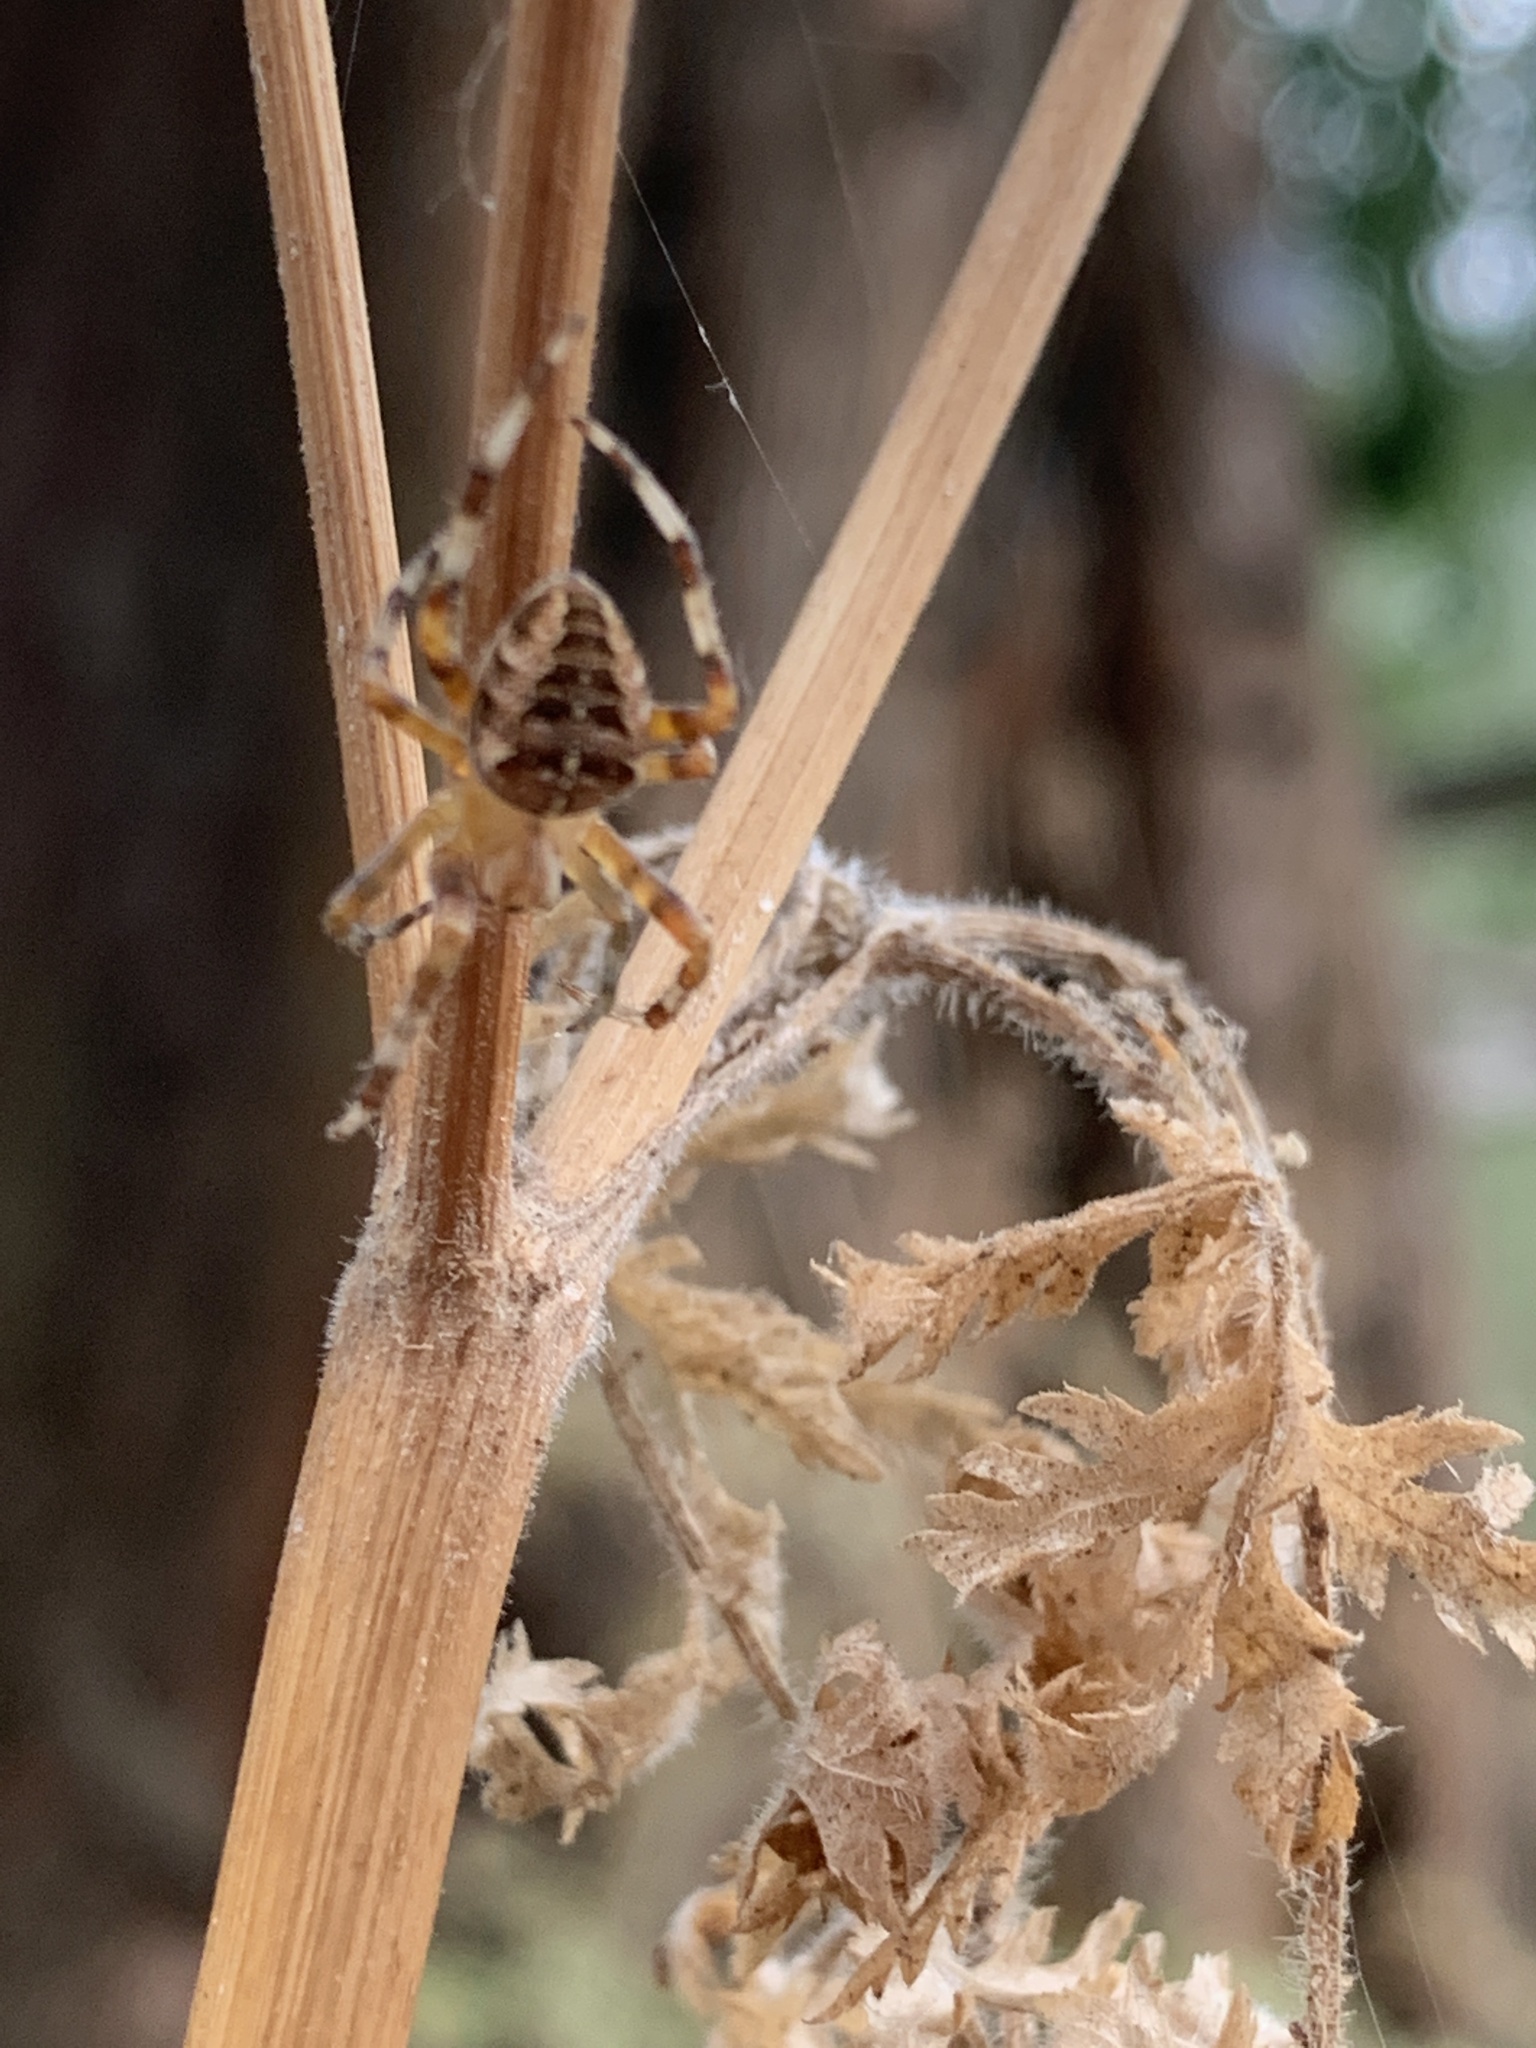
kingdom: Animalia
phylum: Arthropoda
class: Arachnida
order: Araneae
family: Araneidae
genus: Araneus
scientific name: Araneus diadematus
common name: Cross orbweaver
